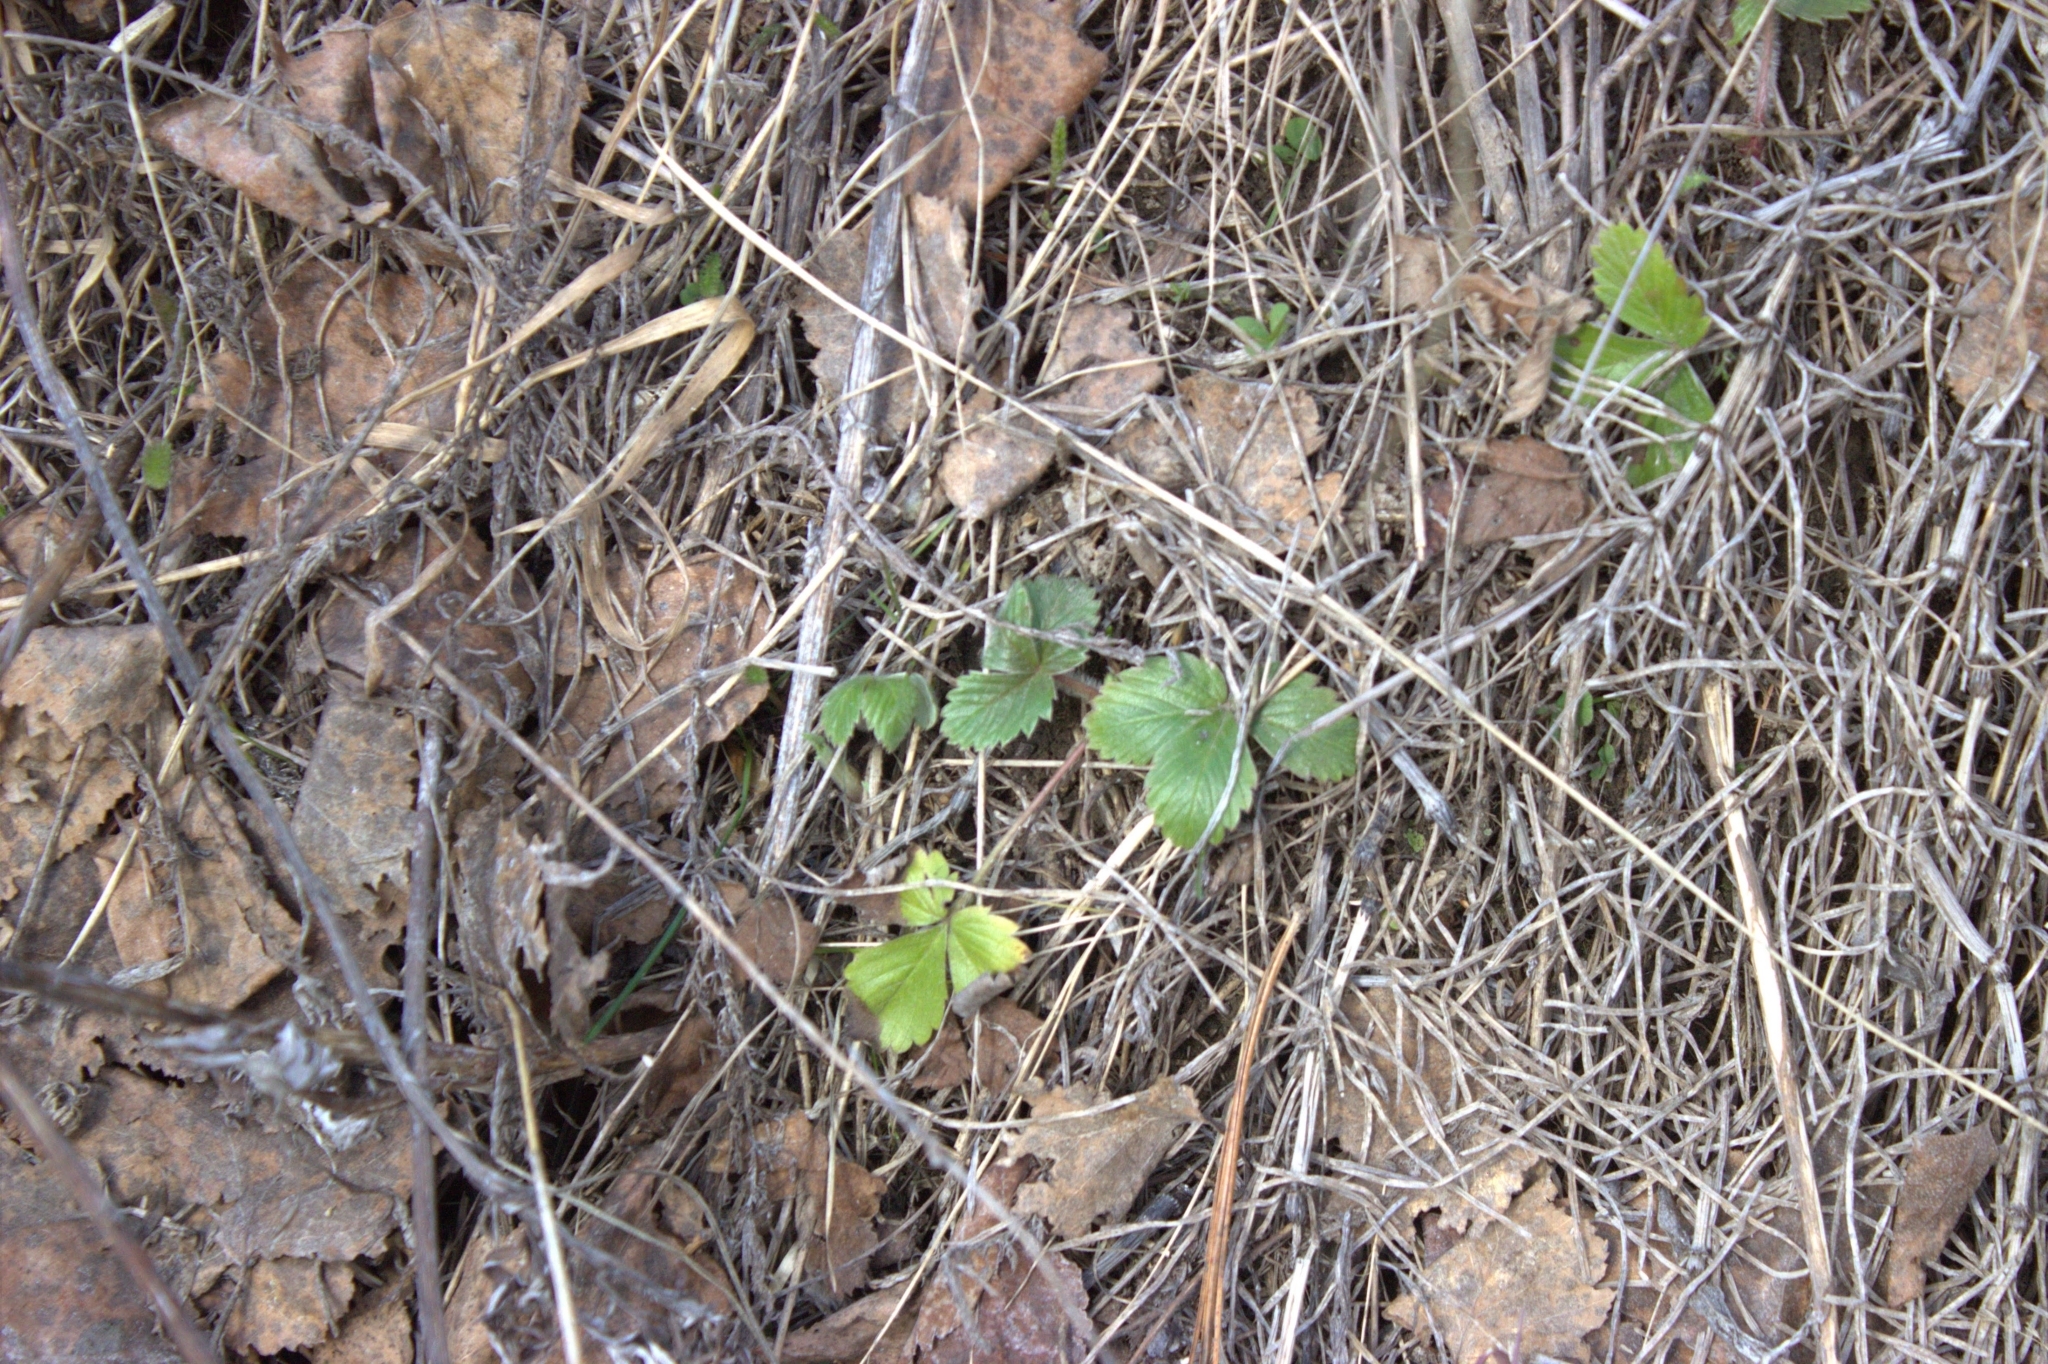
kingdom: Plantae
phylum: Tracheophyta
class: Magnoliopsida
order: Rosales
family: Rosaceae
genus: Fragaria
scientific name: Fragaria vesca
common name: Wild strawberry
